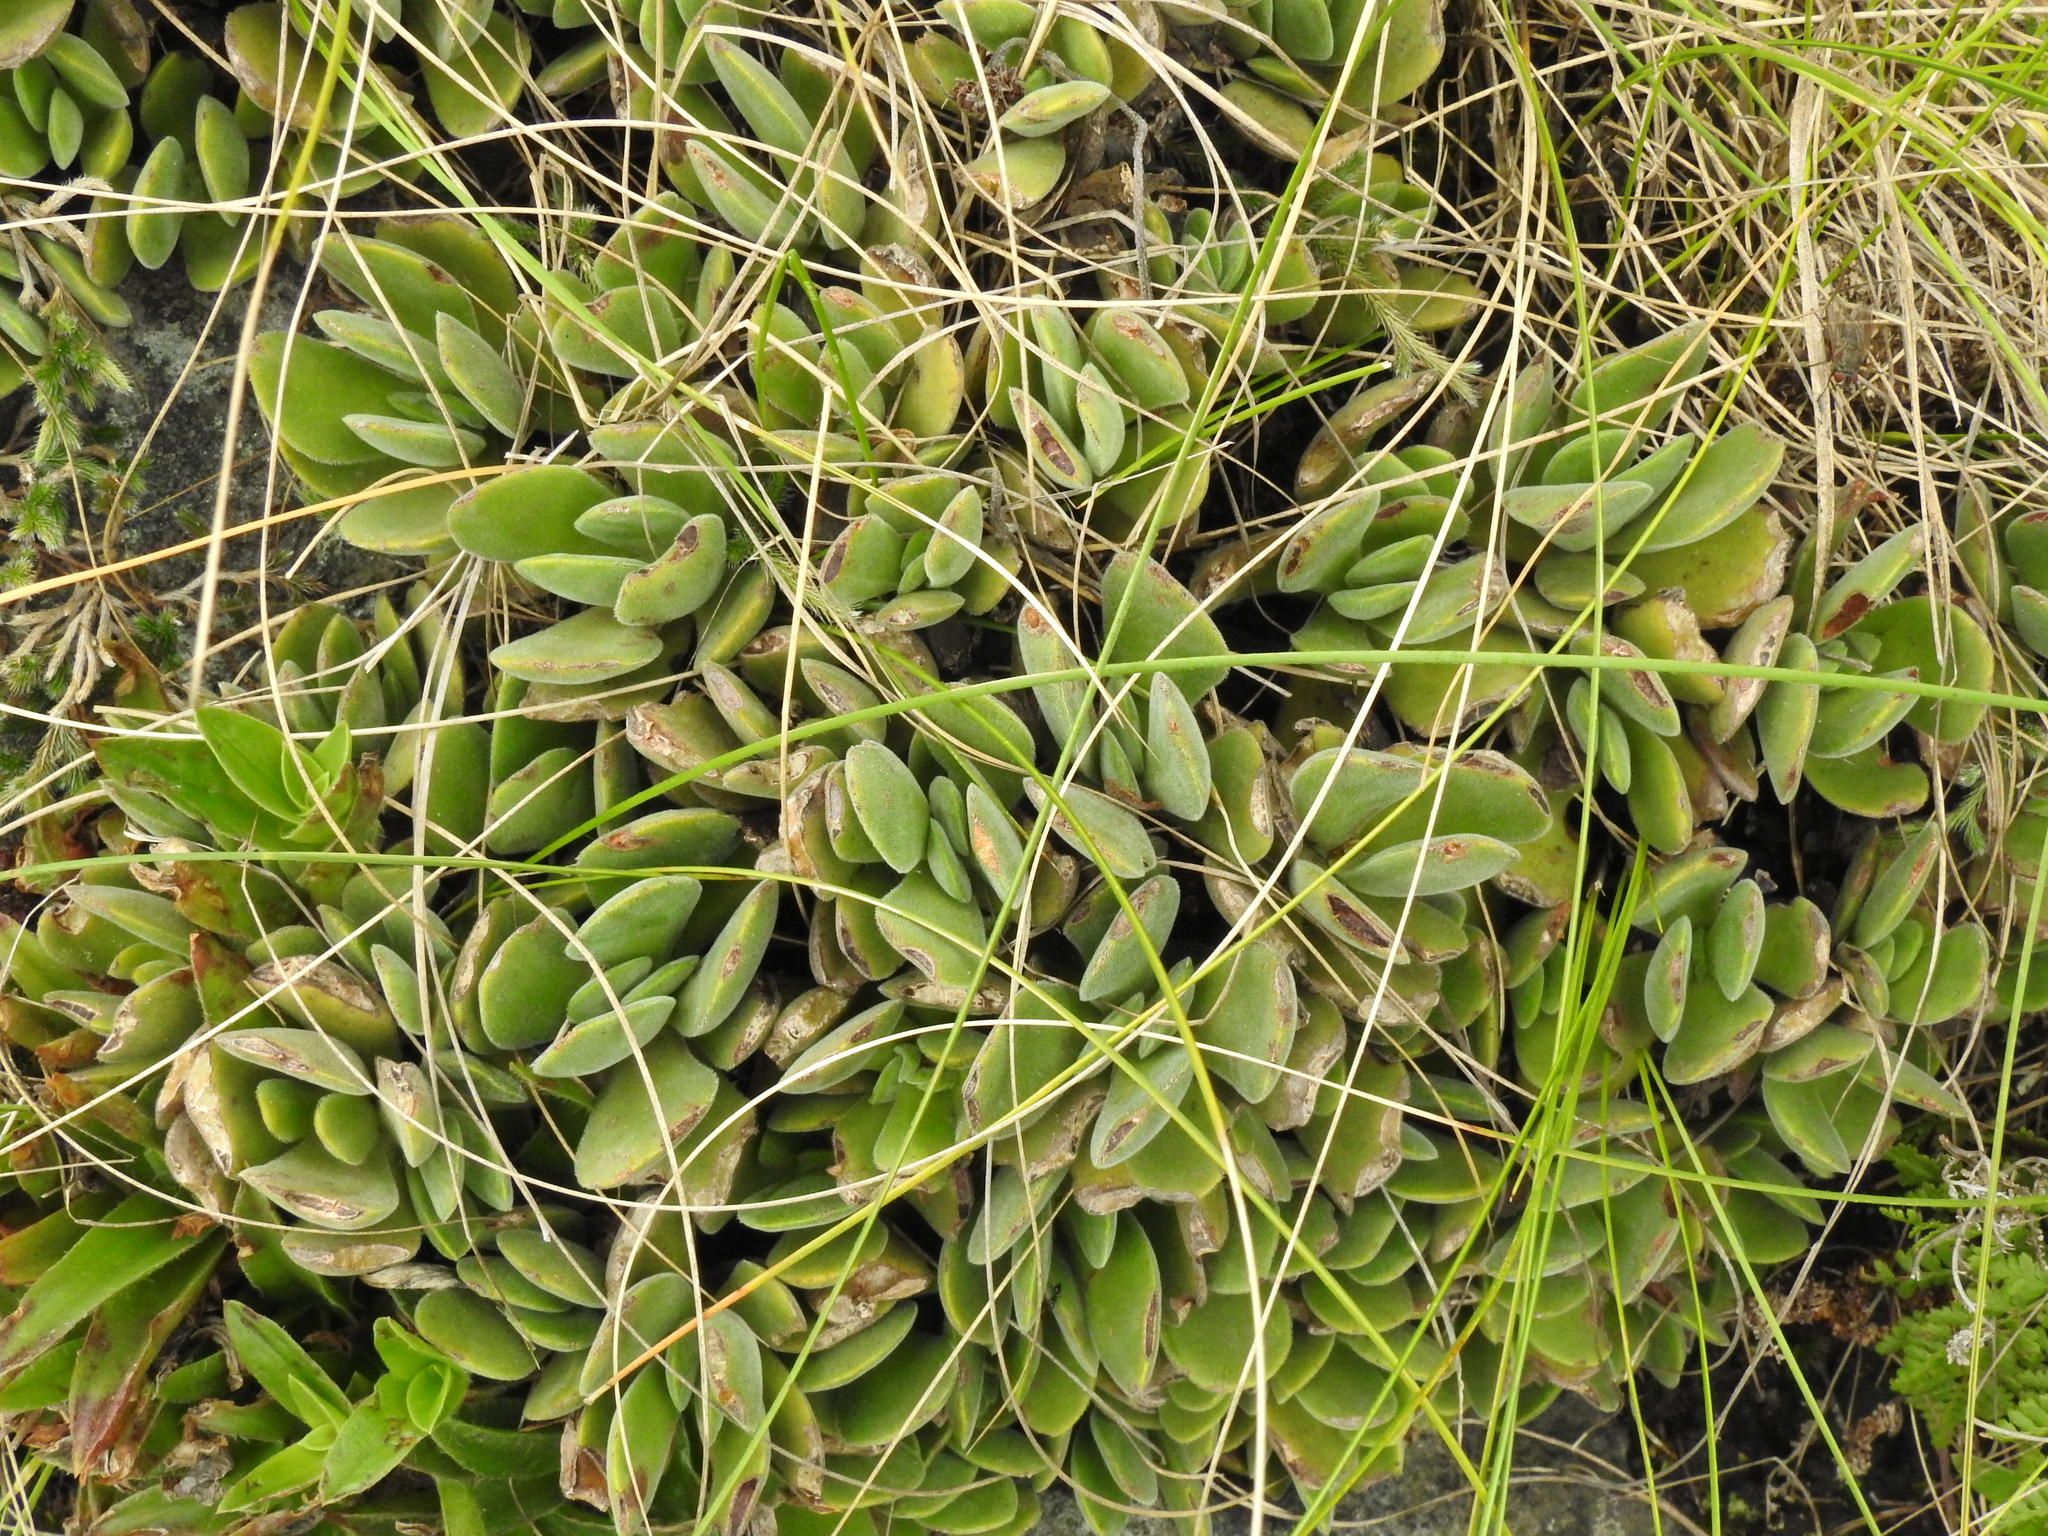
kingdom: Plantae
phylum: Tracheophyta
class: Magnoliopsida
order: Saxifragales
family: Crassulaceae
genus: Crassula
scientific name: Crassula globularioides
